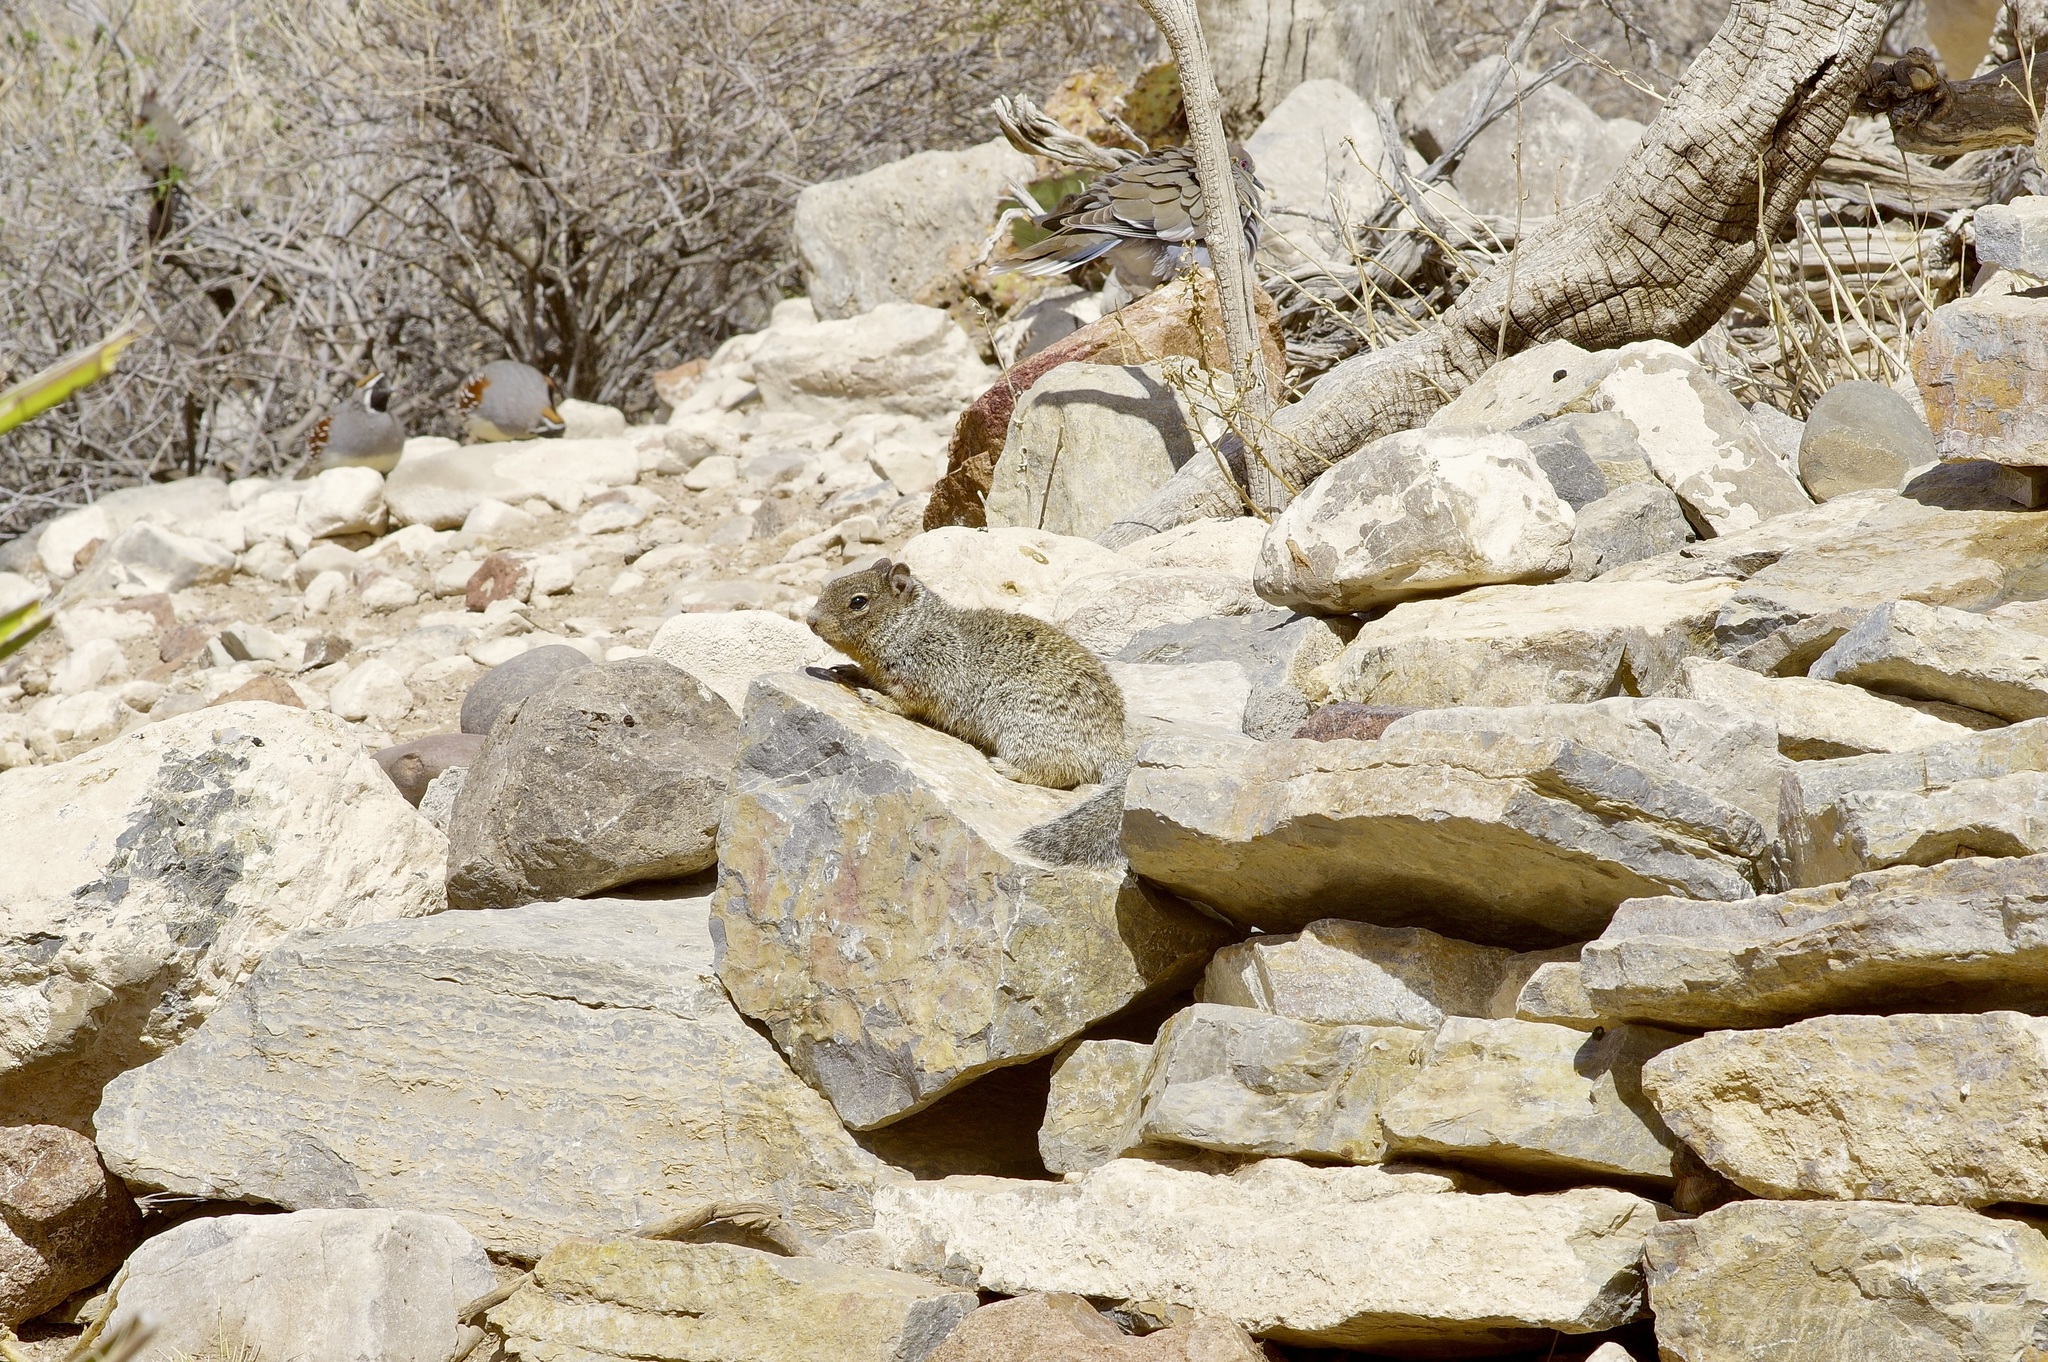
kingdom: Animalia
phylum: Chordata
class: Mammalia
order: Rodentia
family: Sciuridae
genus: Otospermophilus
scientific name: Otospermophilus variegatus
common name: Rock squirrel
